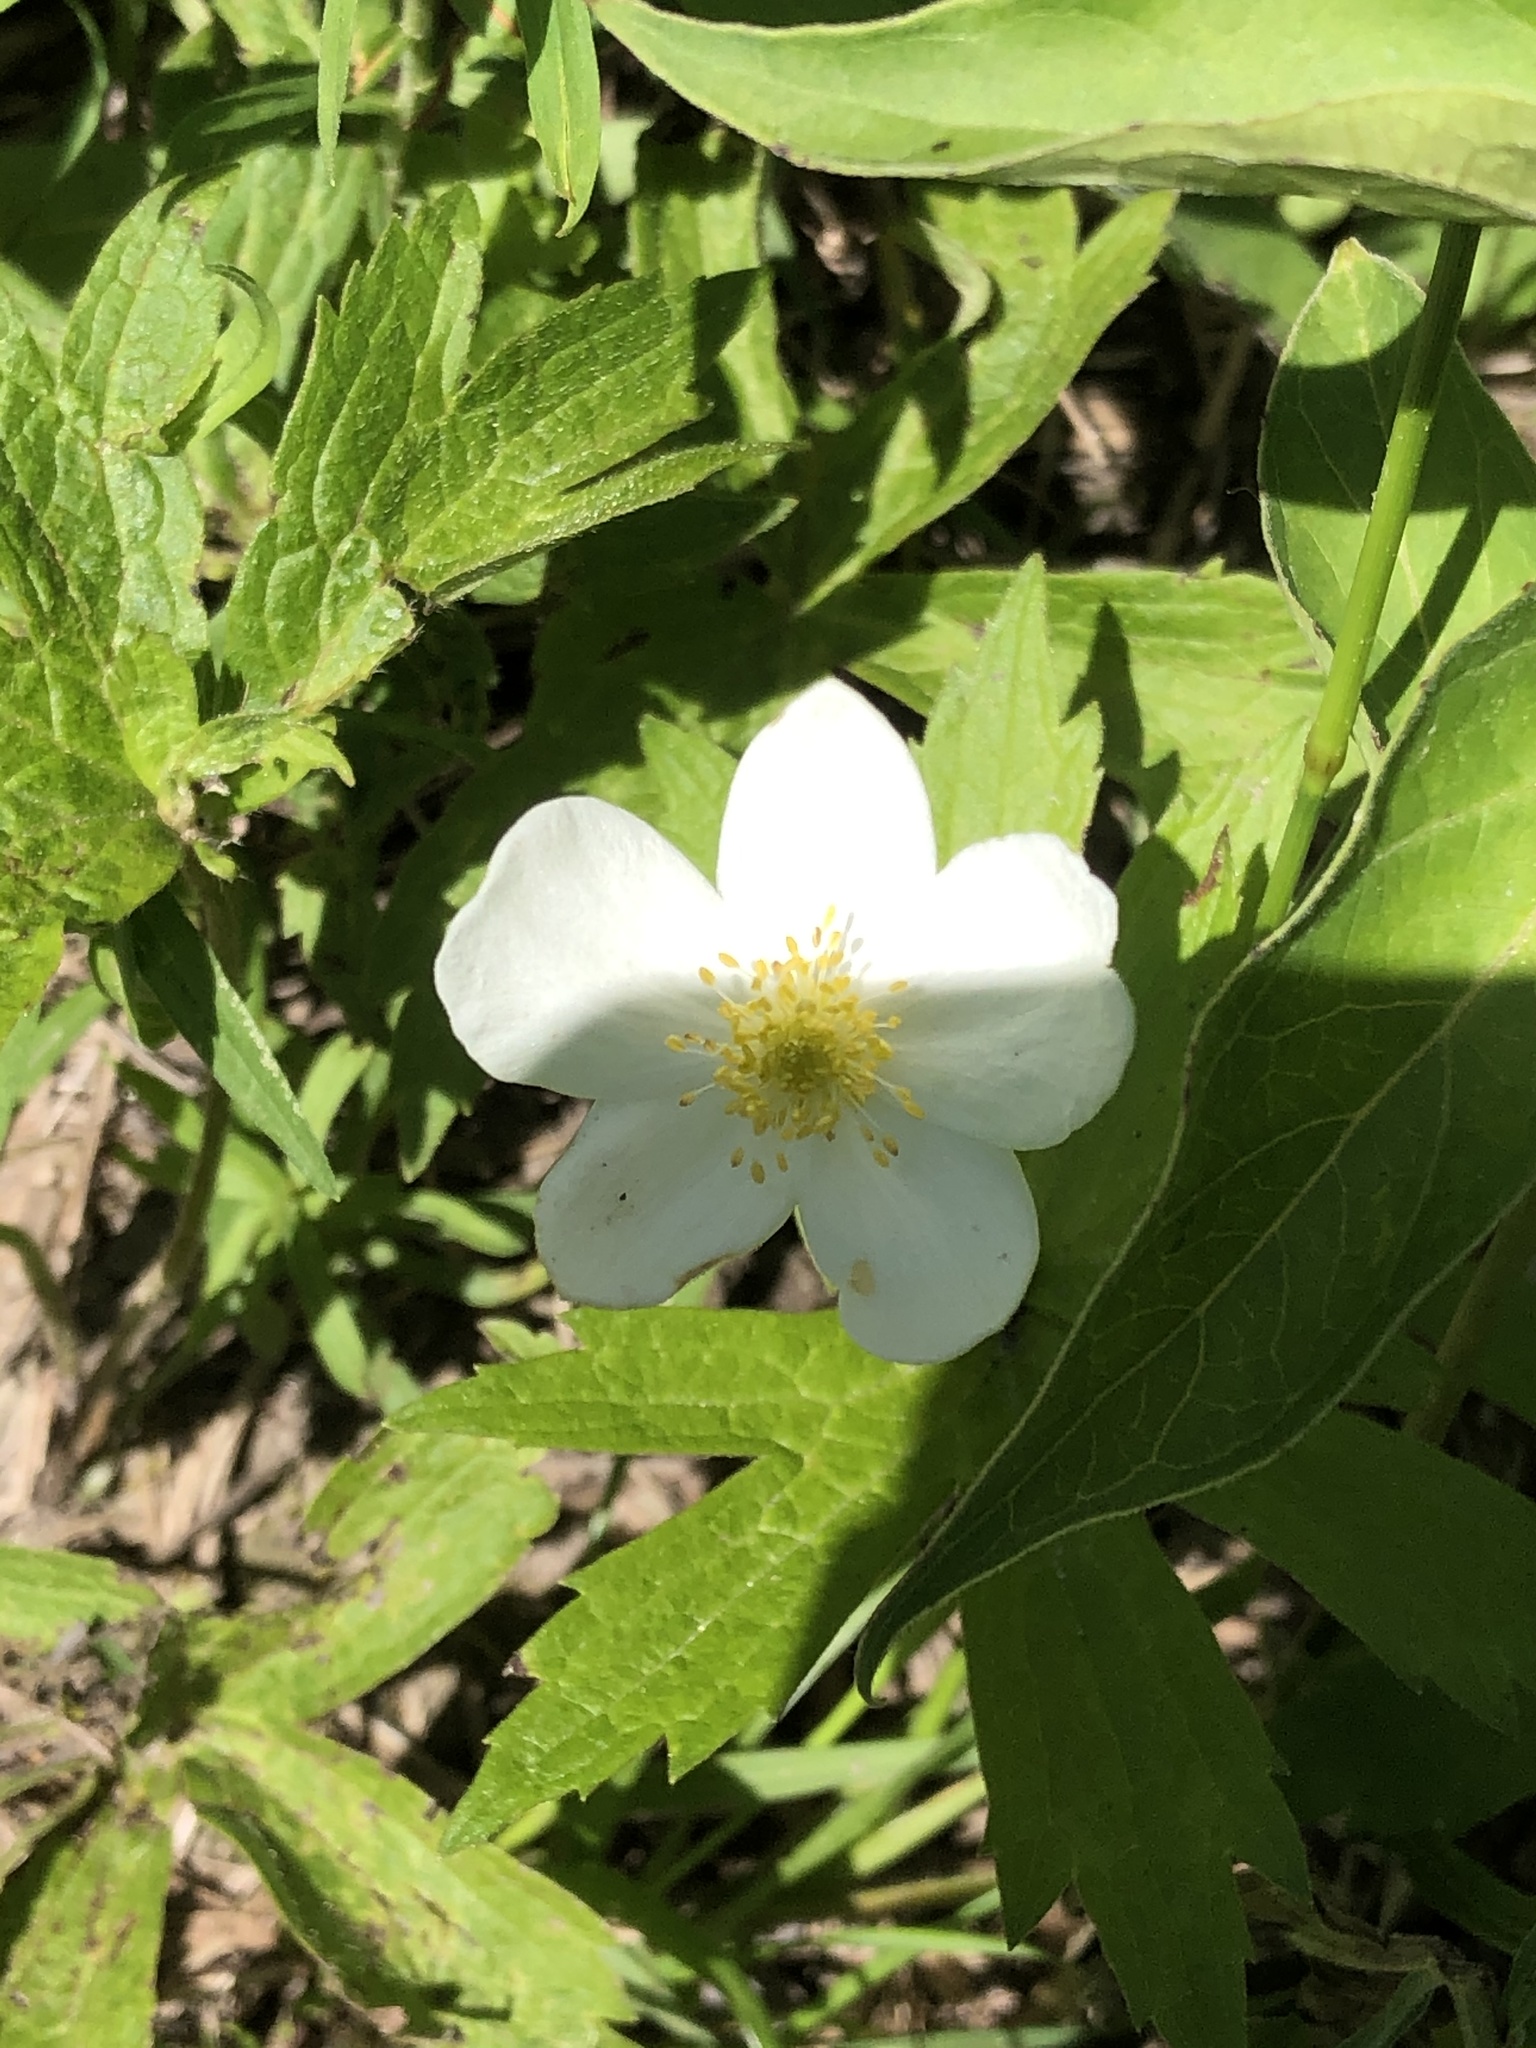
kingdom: Plantae
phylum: Tracheophyta
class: Magnoliopsida
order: Ranunculales
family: Ranunculaceae
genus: Anemonastrum
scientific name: Anemonastrum canadense
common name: Canada anemone
